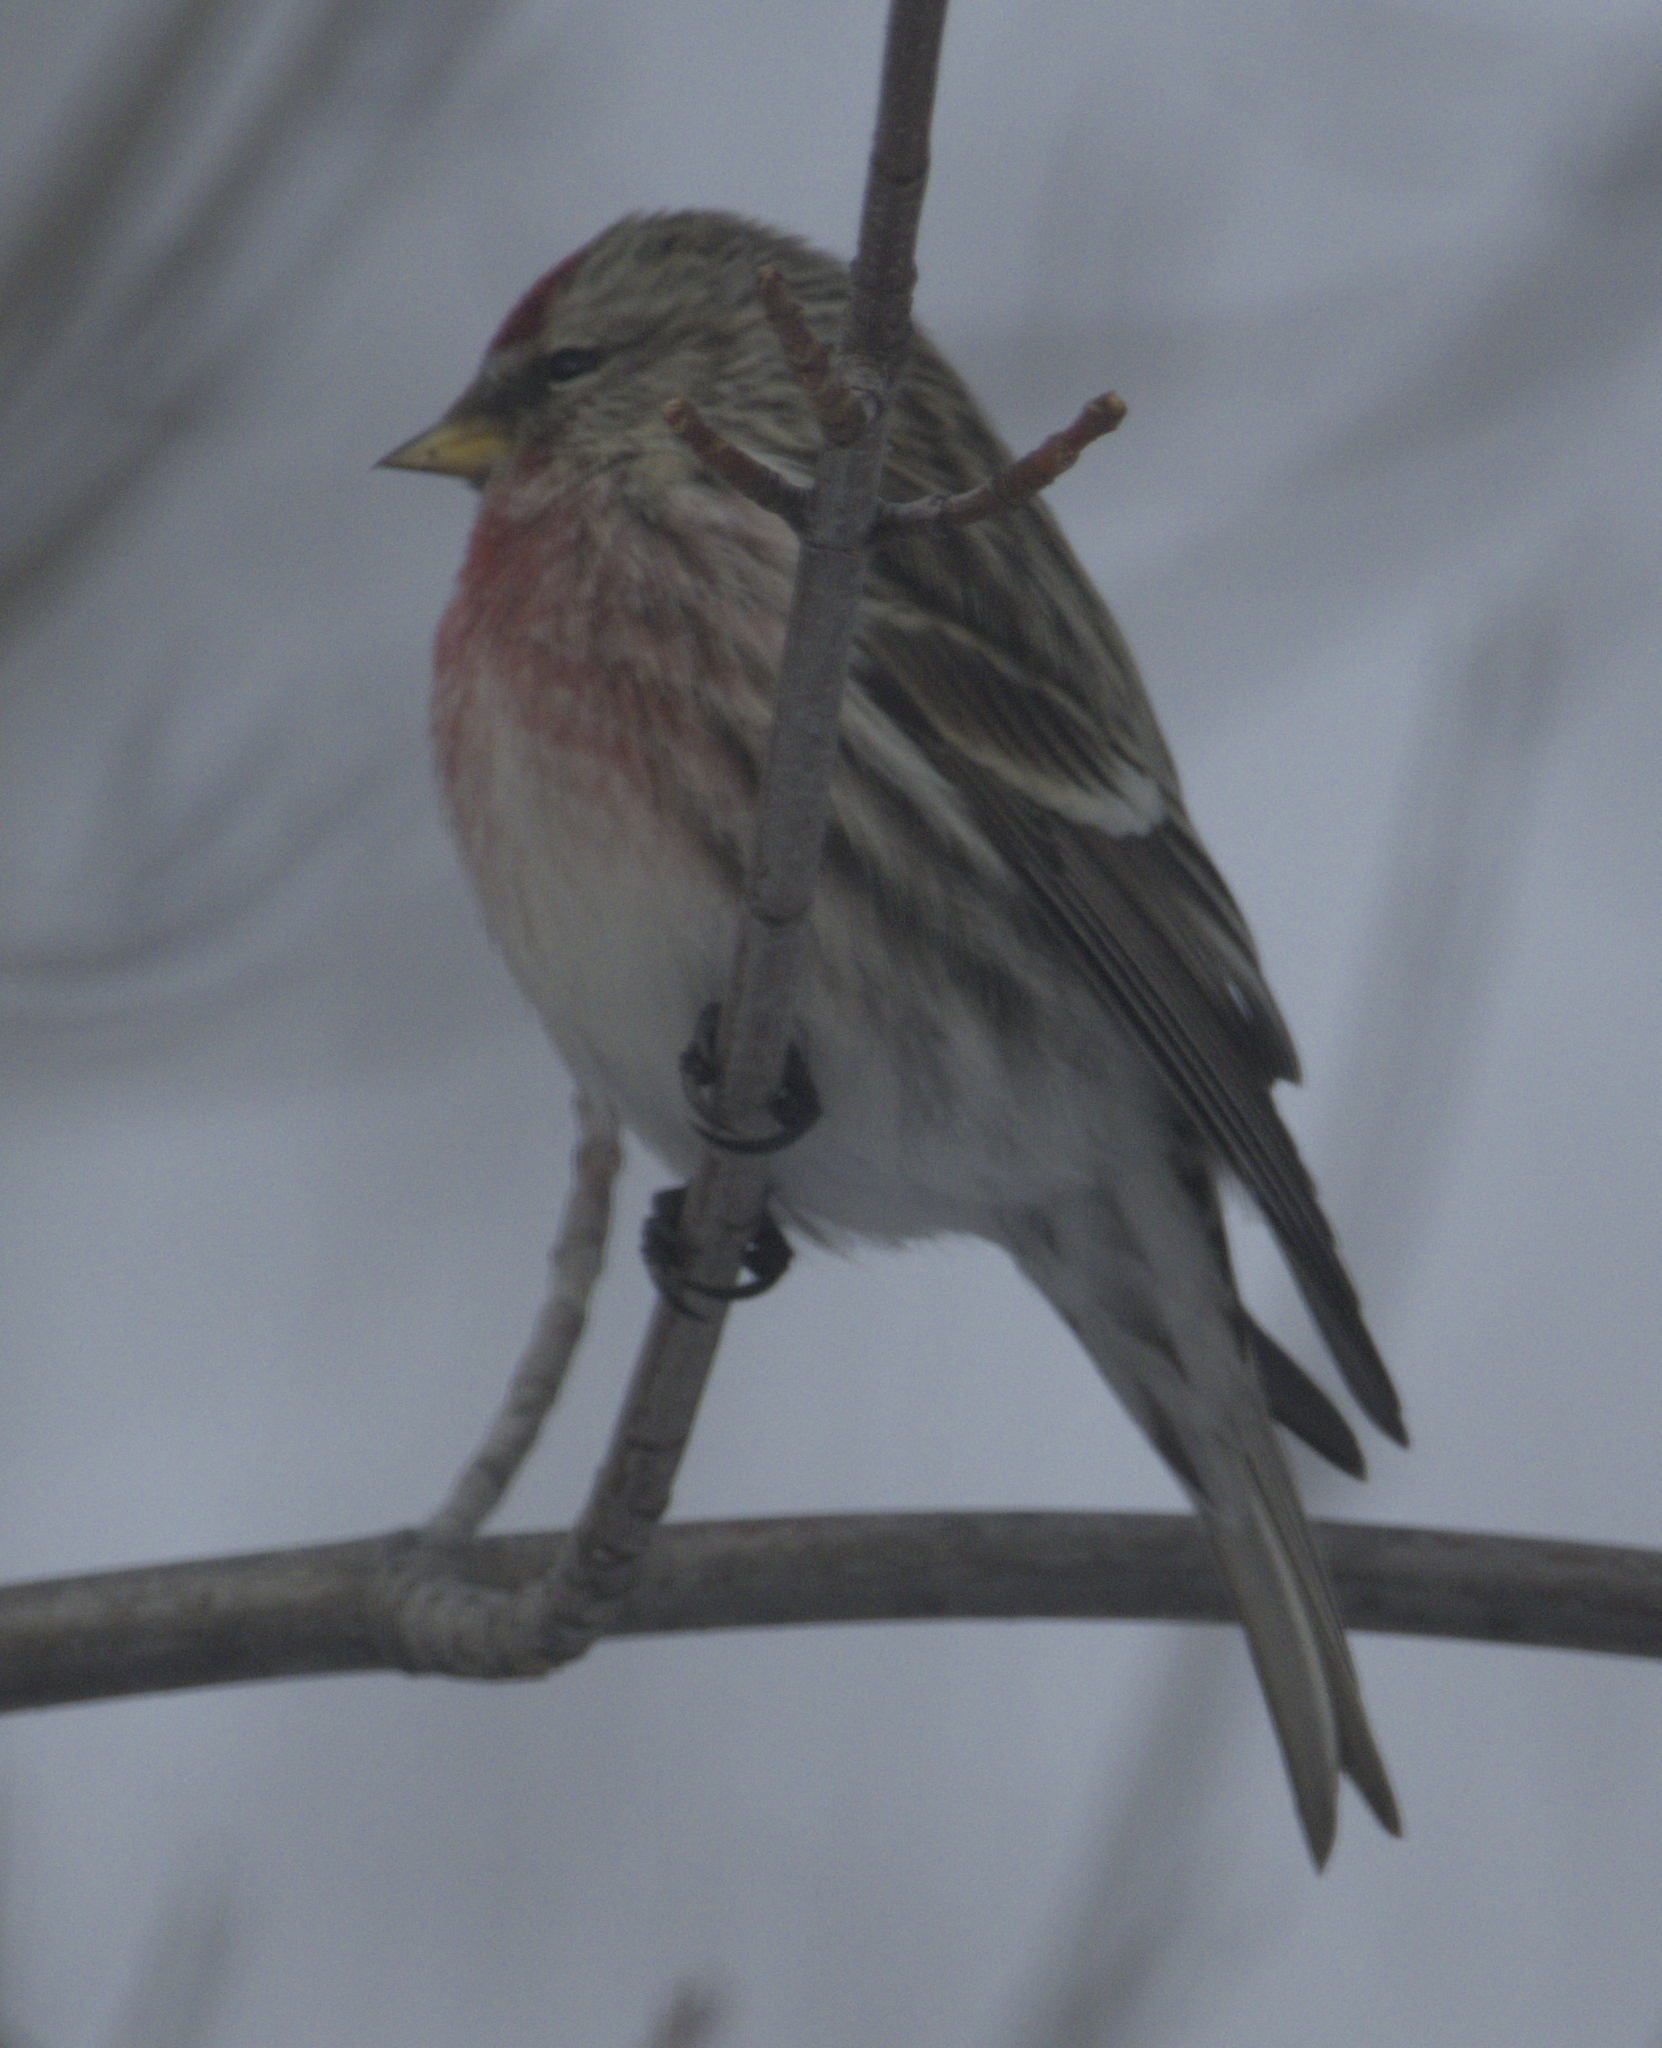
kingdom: Animalia
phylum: Chordata
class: Aves
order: Passeriformes
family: Fringillidae
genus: Acanthis
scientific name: Acanthis flammea
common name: Common redpoll
